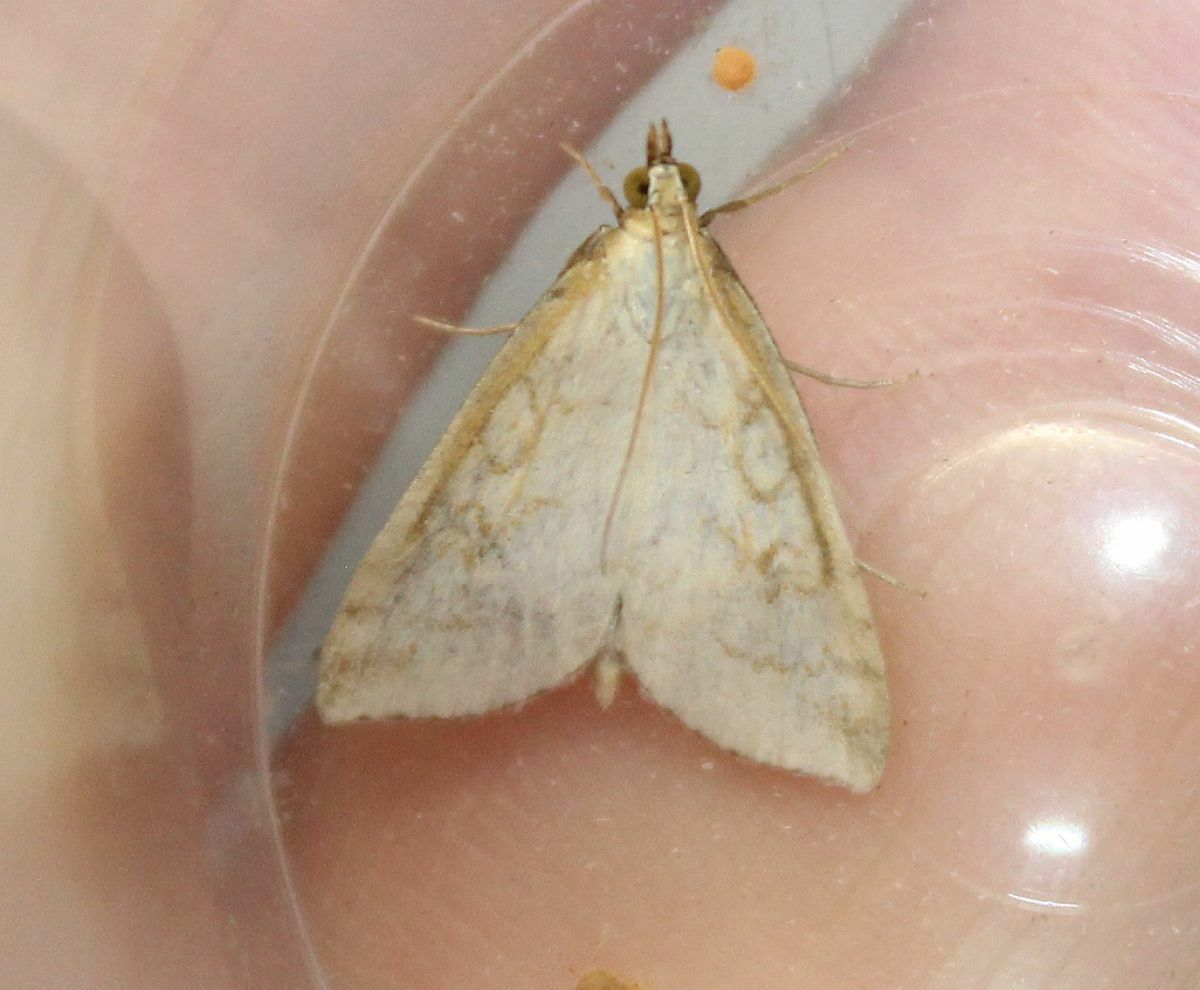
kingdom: Animalia
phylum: Arthropoda
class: Insecta
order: Lepidoptera
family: Crambidae
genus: Udea
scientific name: Udea lutealis
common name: Pale straw pearl
